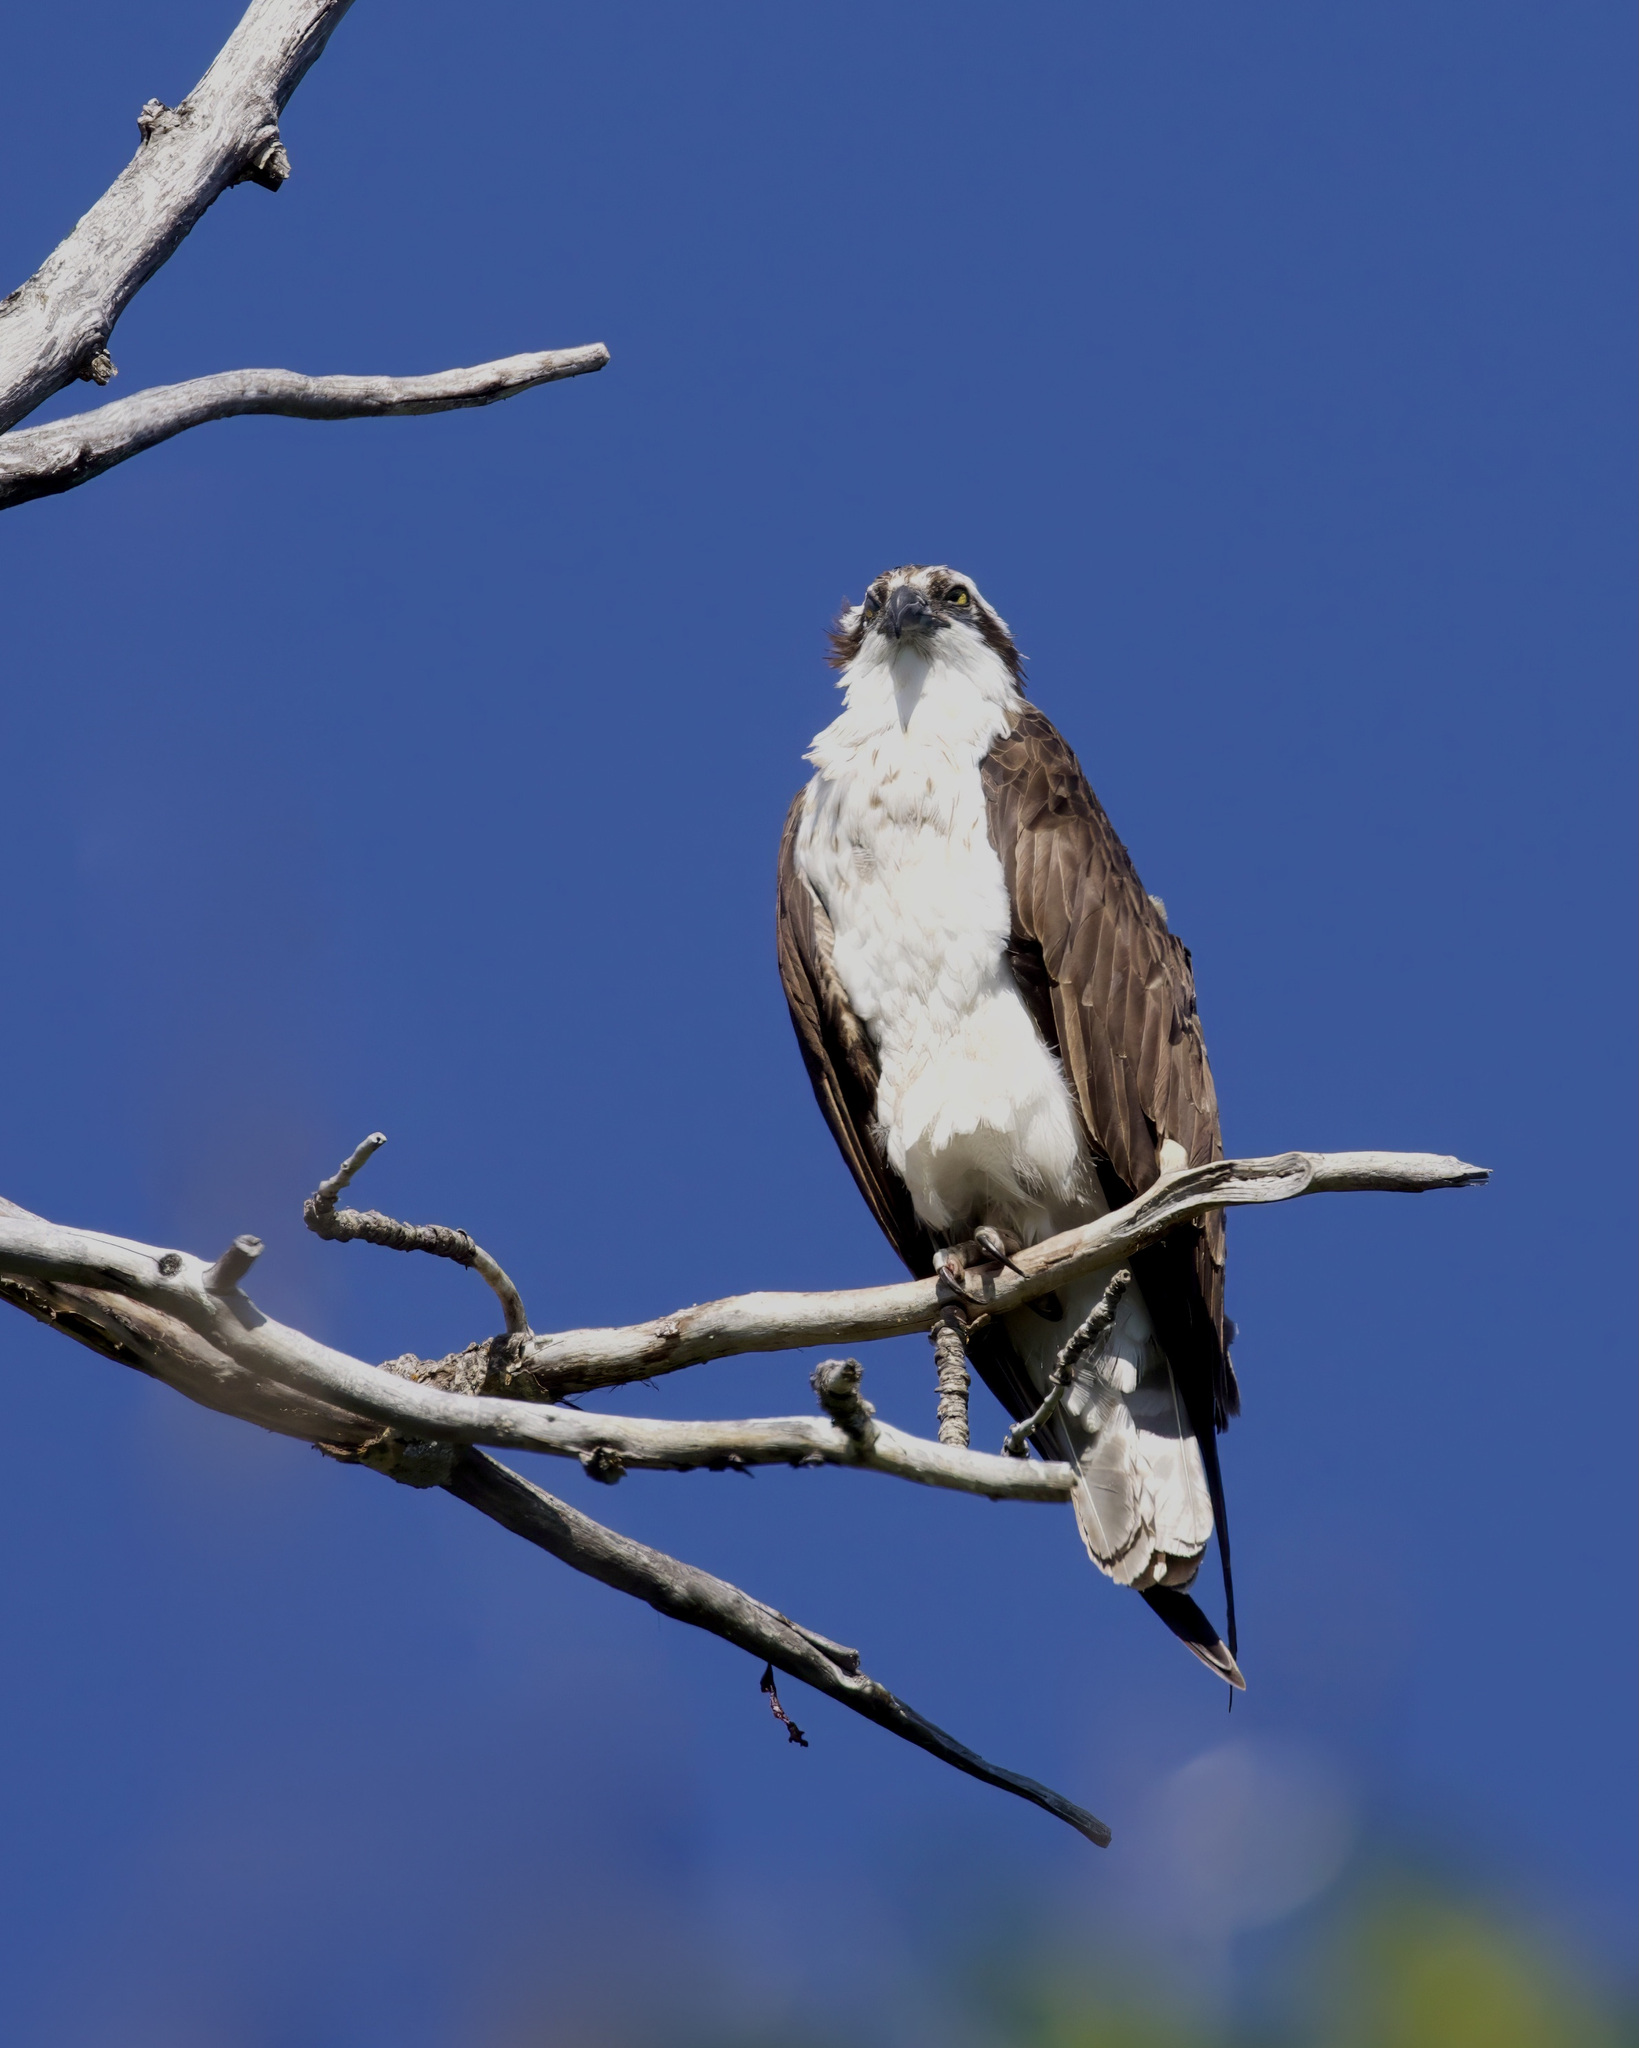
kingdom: Animalia
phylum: Chordata
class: Aves
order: Accipitriformes
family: Pandionidae
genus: Pandion
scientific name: Pandion haliaetus
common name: Osprey
